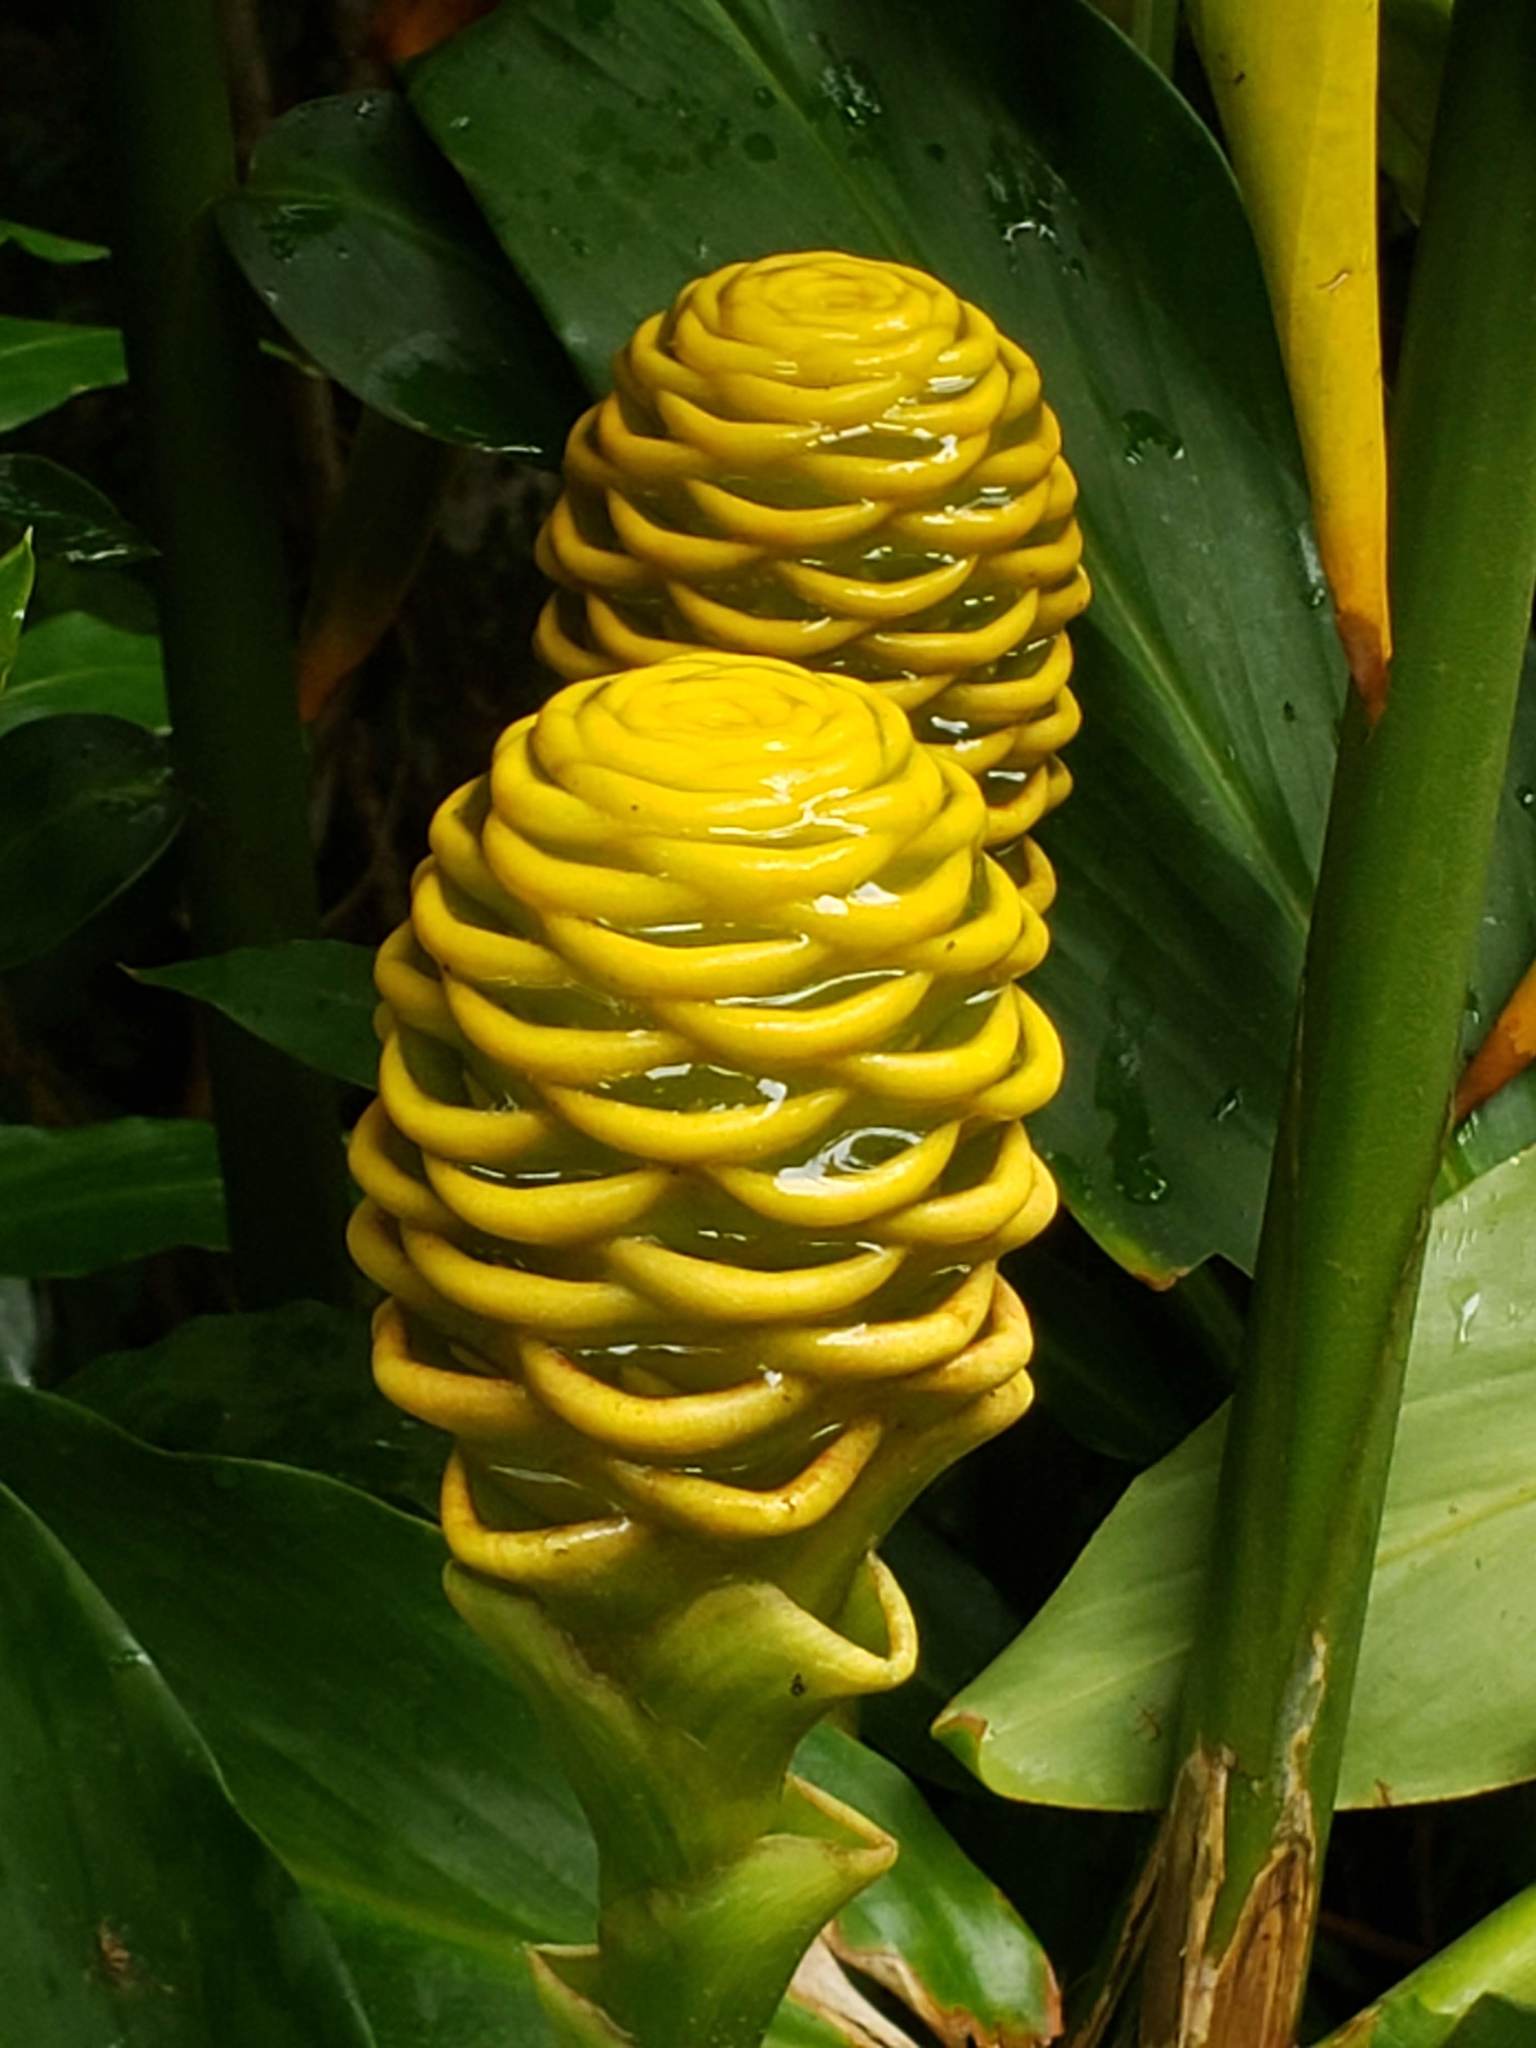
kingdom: Plantae
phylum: Tracheophyta
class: Liliopsida
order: Zingiberales
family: Zingiberaceae
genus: Zingiber
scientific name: Zingiber spectabile
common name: Beehive ginger
